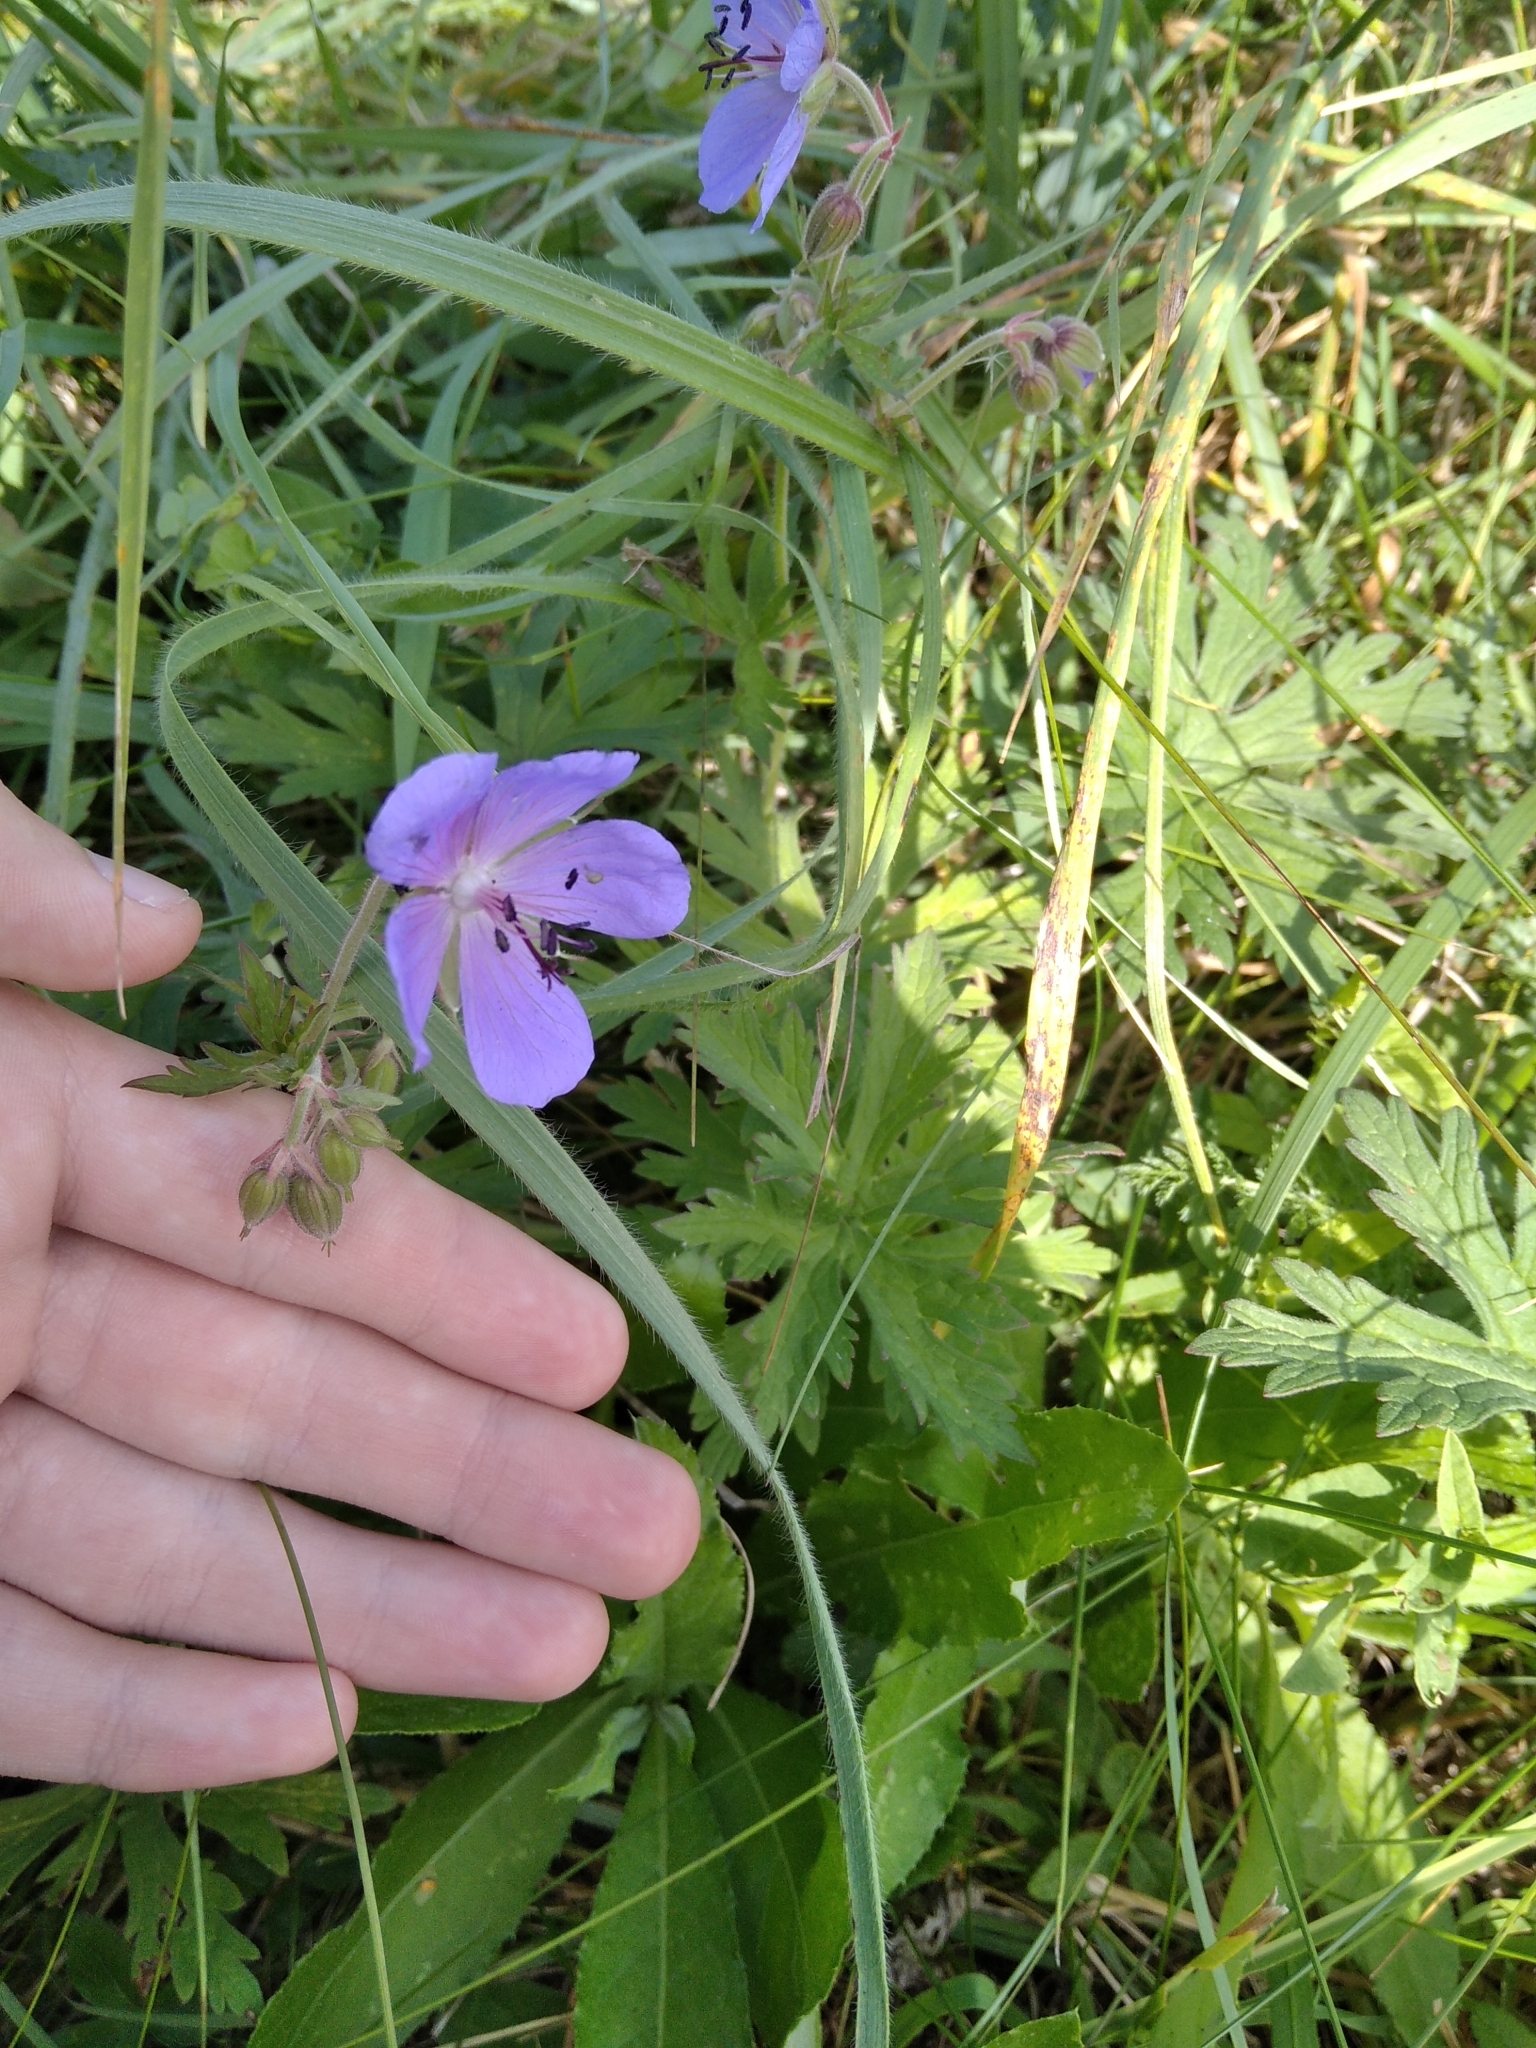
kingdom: Plantae
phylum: Tracheophyta
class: Magnoliopsida
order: Geraniales
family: Geraniaceae
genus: Geranium
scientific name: Geranium pratense
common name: Meadow crane's-bill
